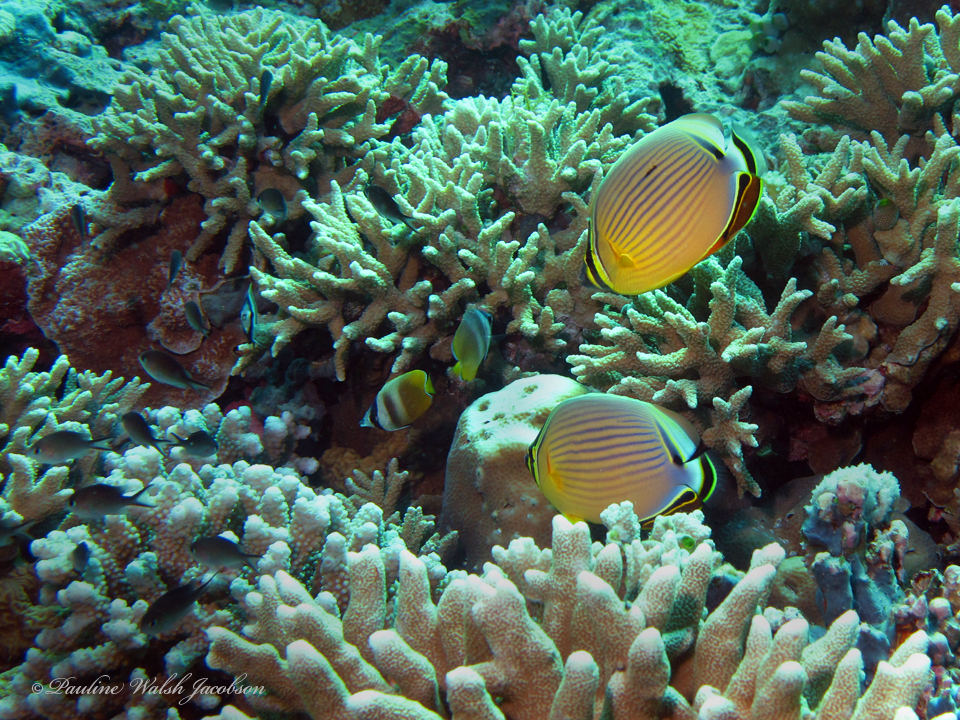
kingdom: Animalia
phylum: Chordata
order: Perciformes
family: Chaetodontidae
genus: Chaetodon
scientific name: Chaetodon lunulatus
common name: Redfin butterflyfish
